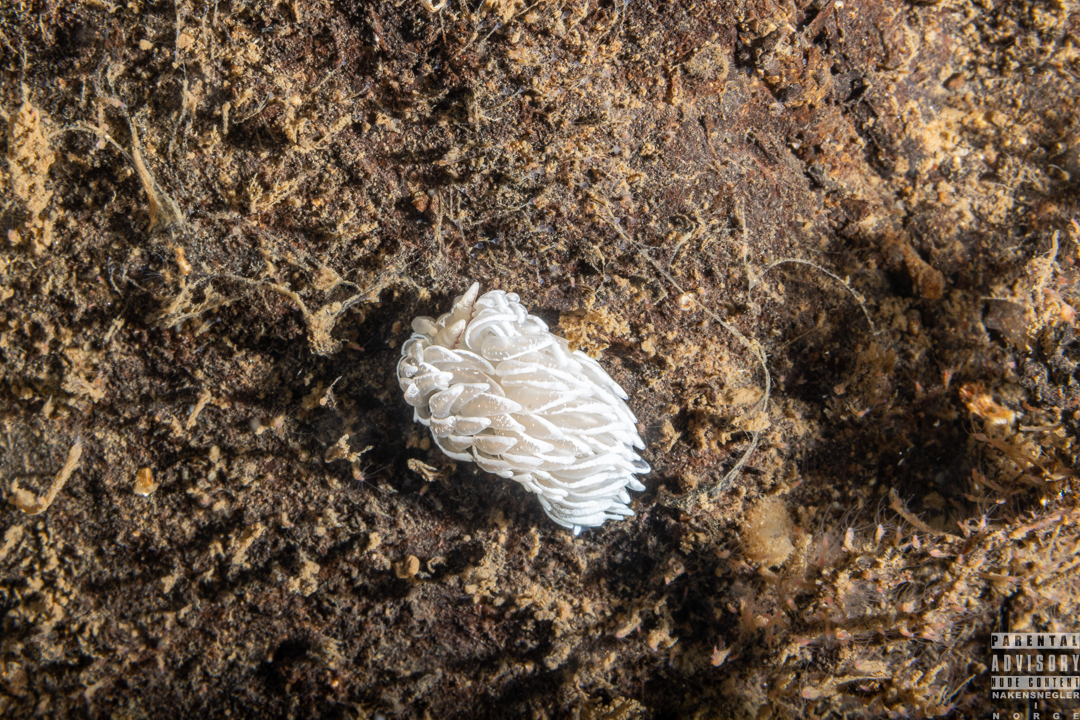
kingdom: Animalia
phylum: Mollusca
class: Gastropoda
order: Nudibranchia
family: Facelinidae
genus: Favorinus
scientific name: Favorinus blianus
